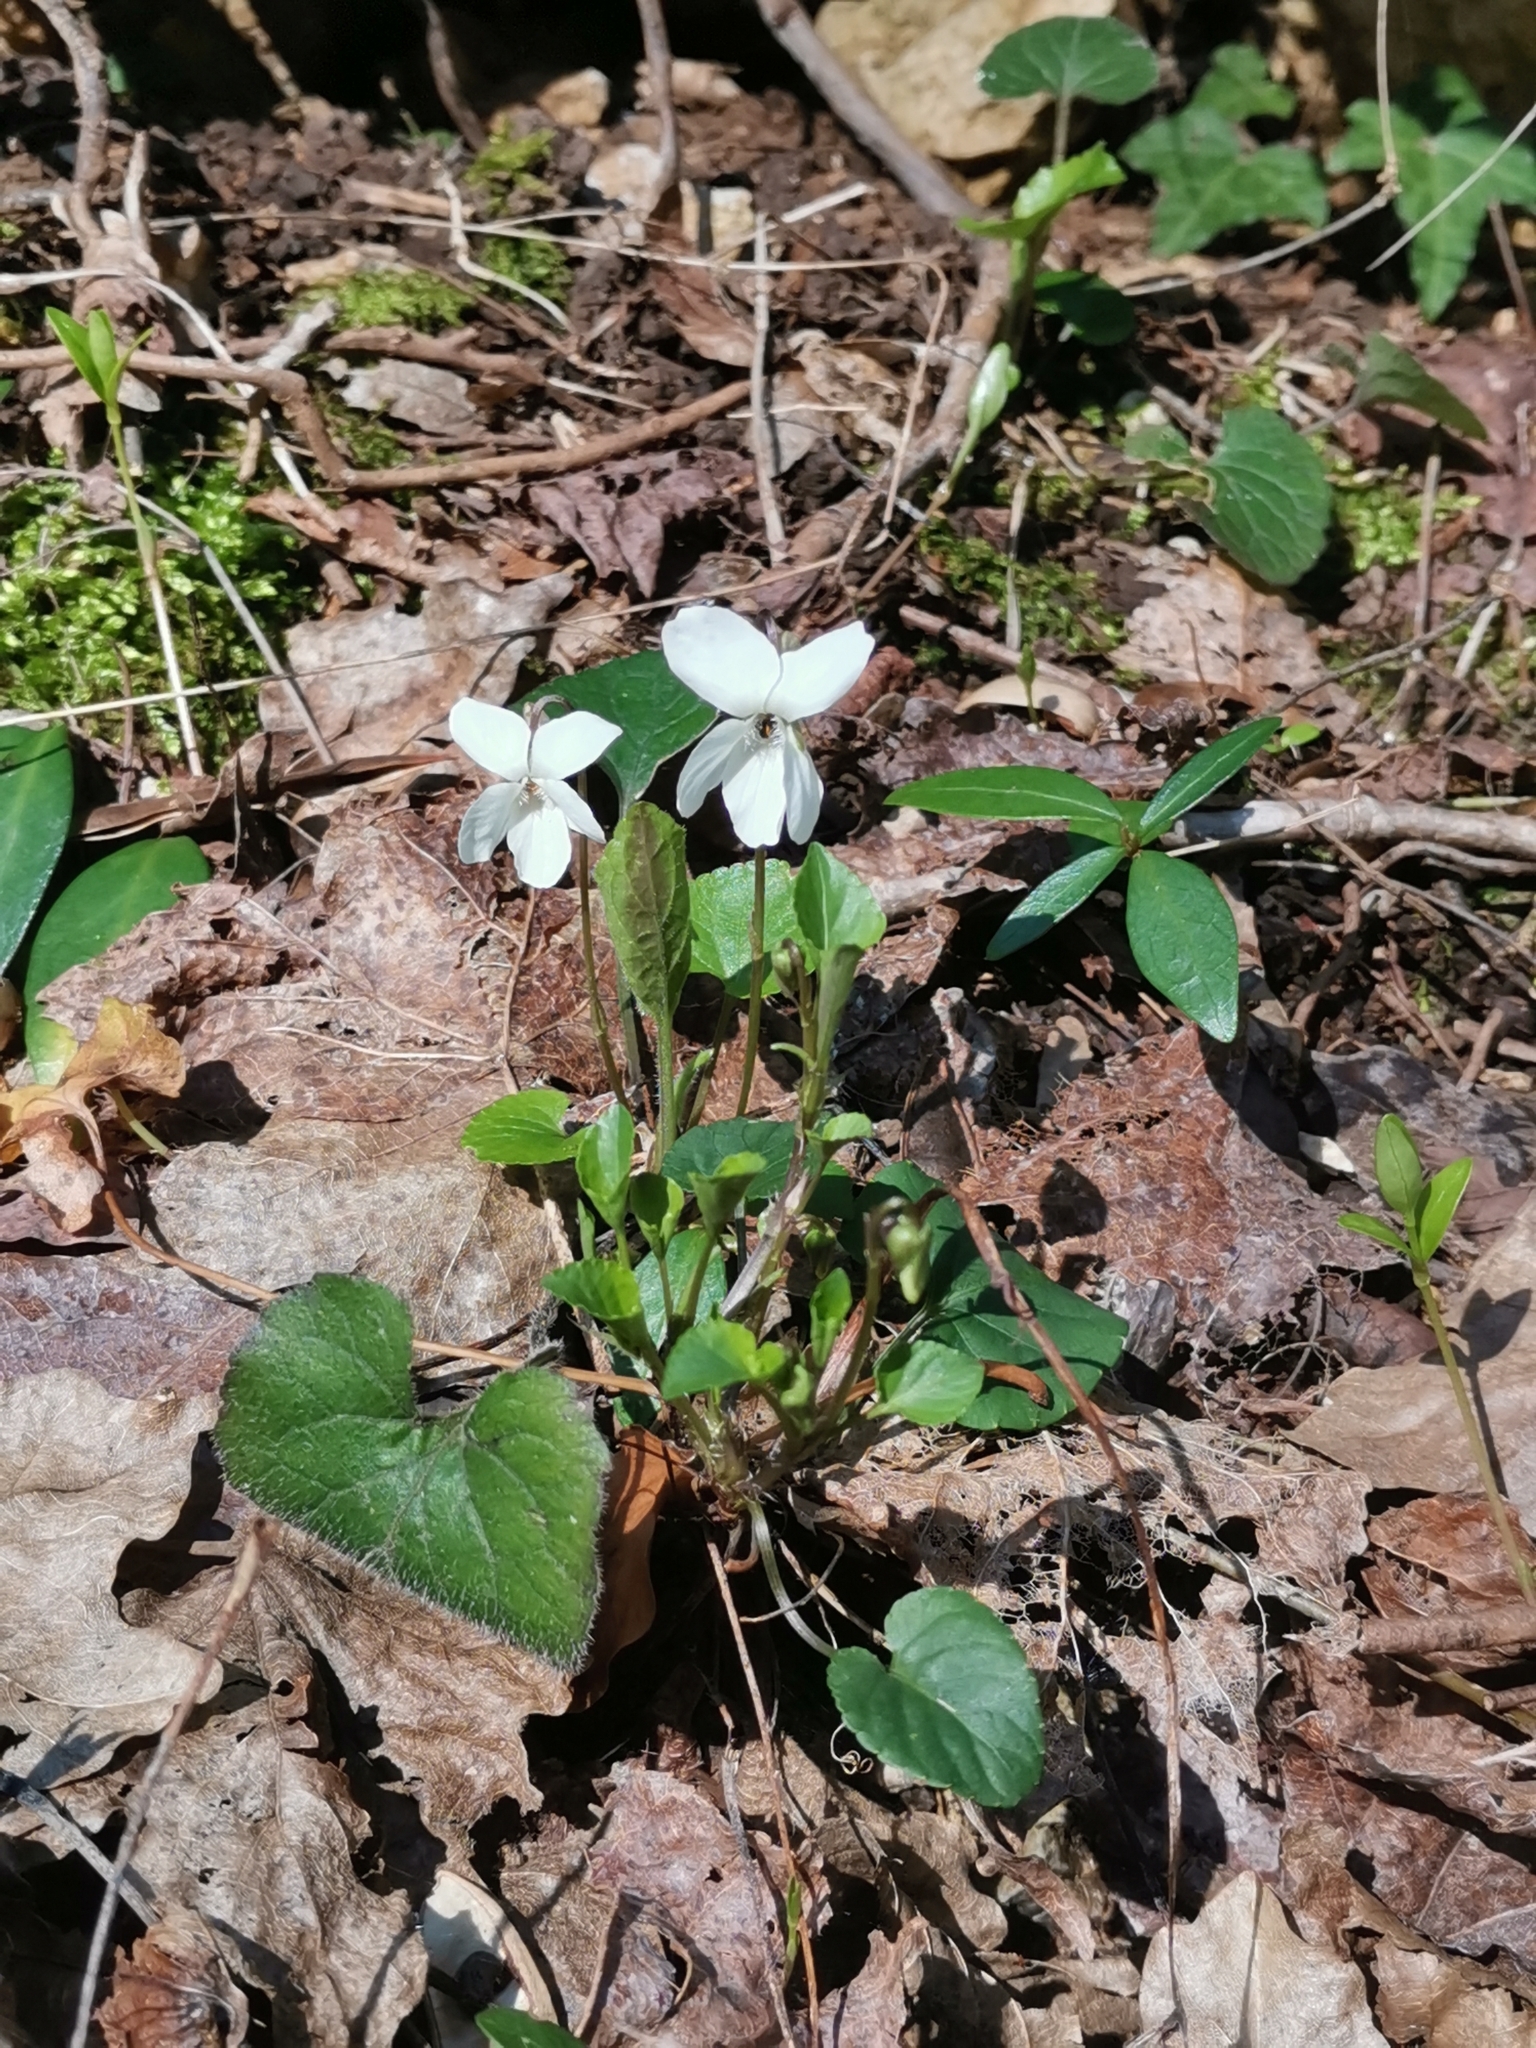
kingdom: Plantae
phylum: Tracheophyta
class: Magnoliopsida
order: Malpighiales
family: Violaceae
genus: Viola
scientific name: Viola alba
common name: White violet
